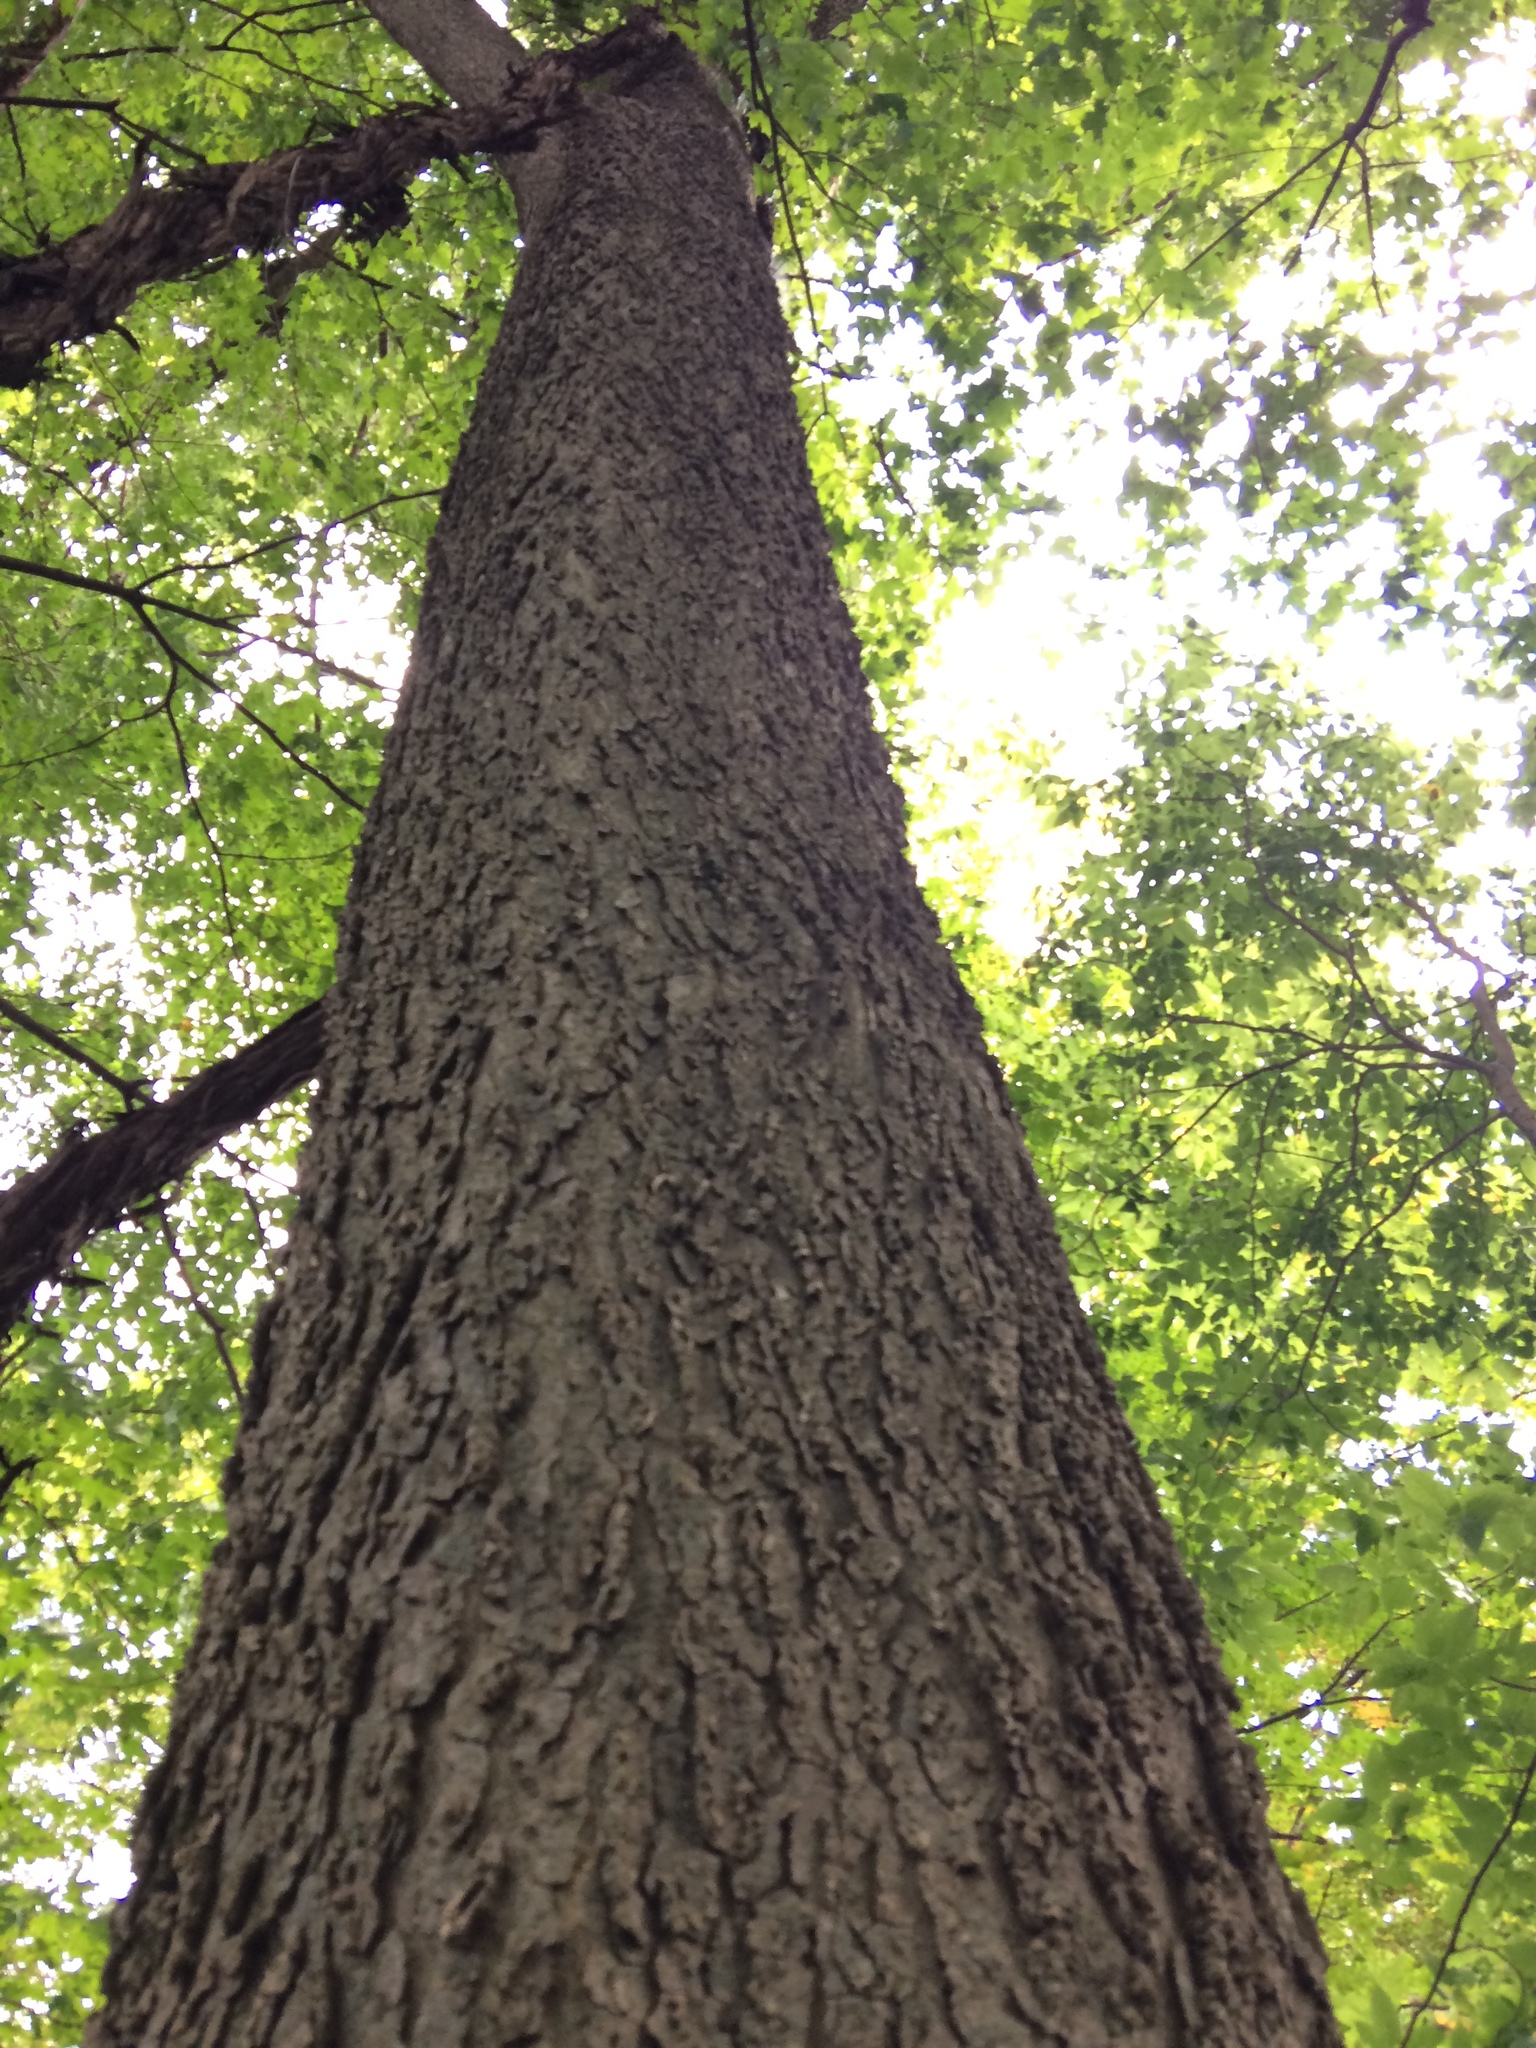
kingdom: Plantae
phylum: Tracheophyta
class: Magnoliopsida
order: Rosales
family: Cannabaceae
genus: Celtis
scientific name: Celtis occidentalis
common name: Common hackberry
